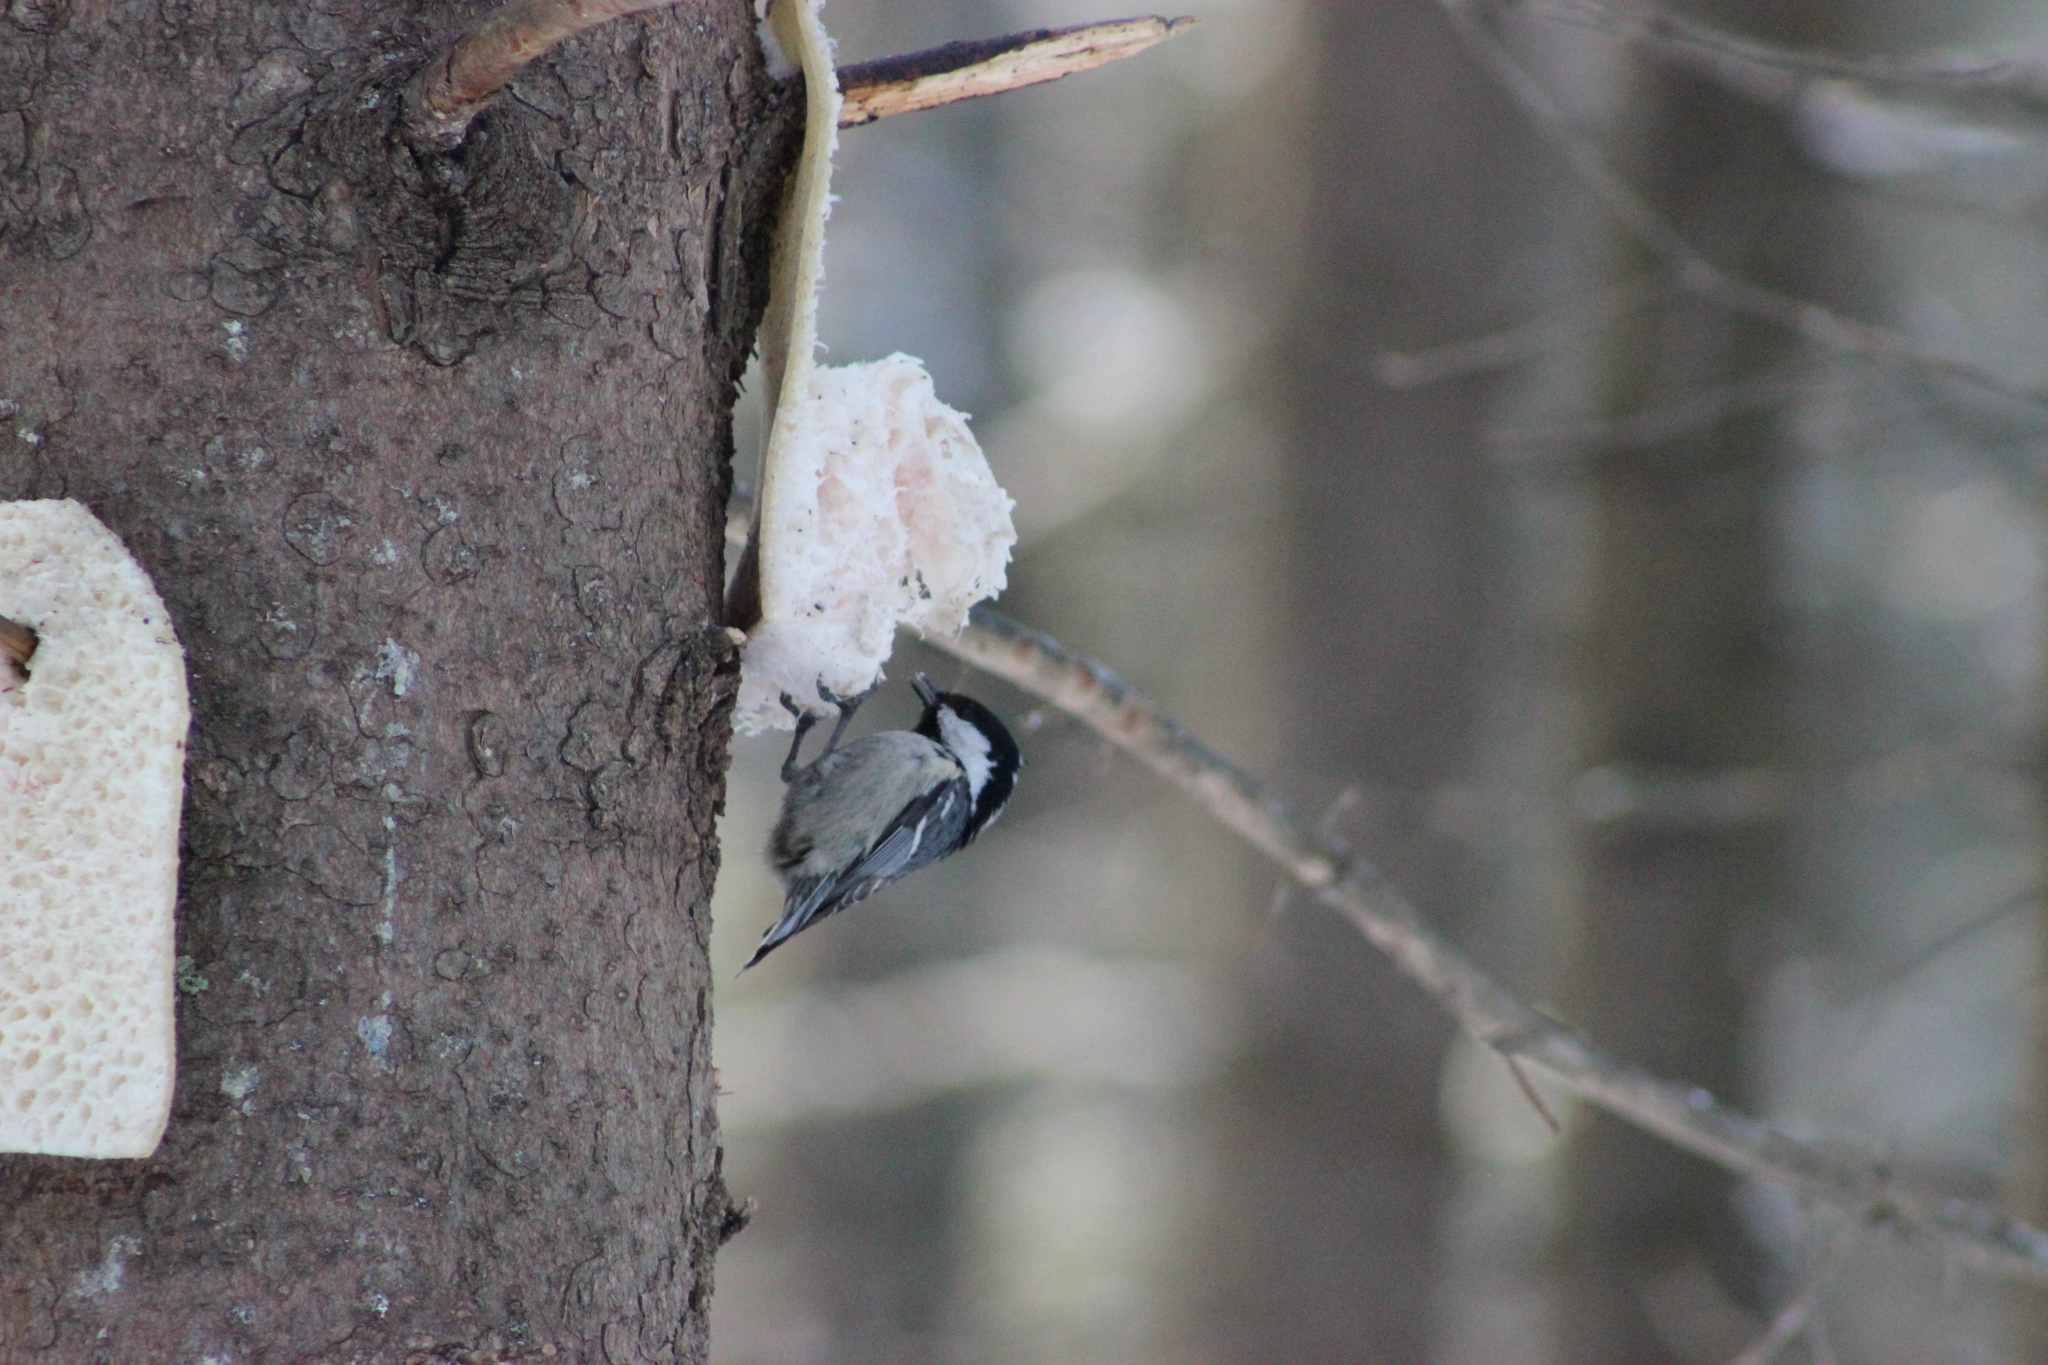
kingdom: Animalia
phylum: Chordata
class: Aves
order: Passeriformes
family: Paridae
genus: Periparus
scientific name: Periparus ater
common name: Coal tit
